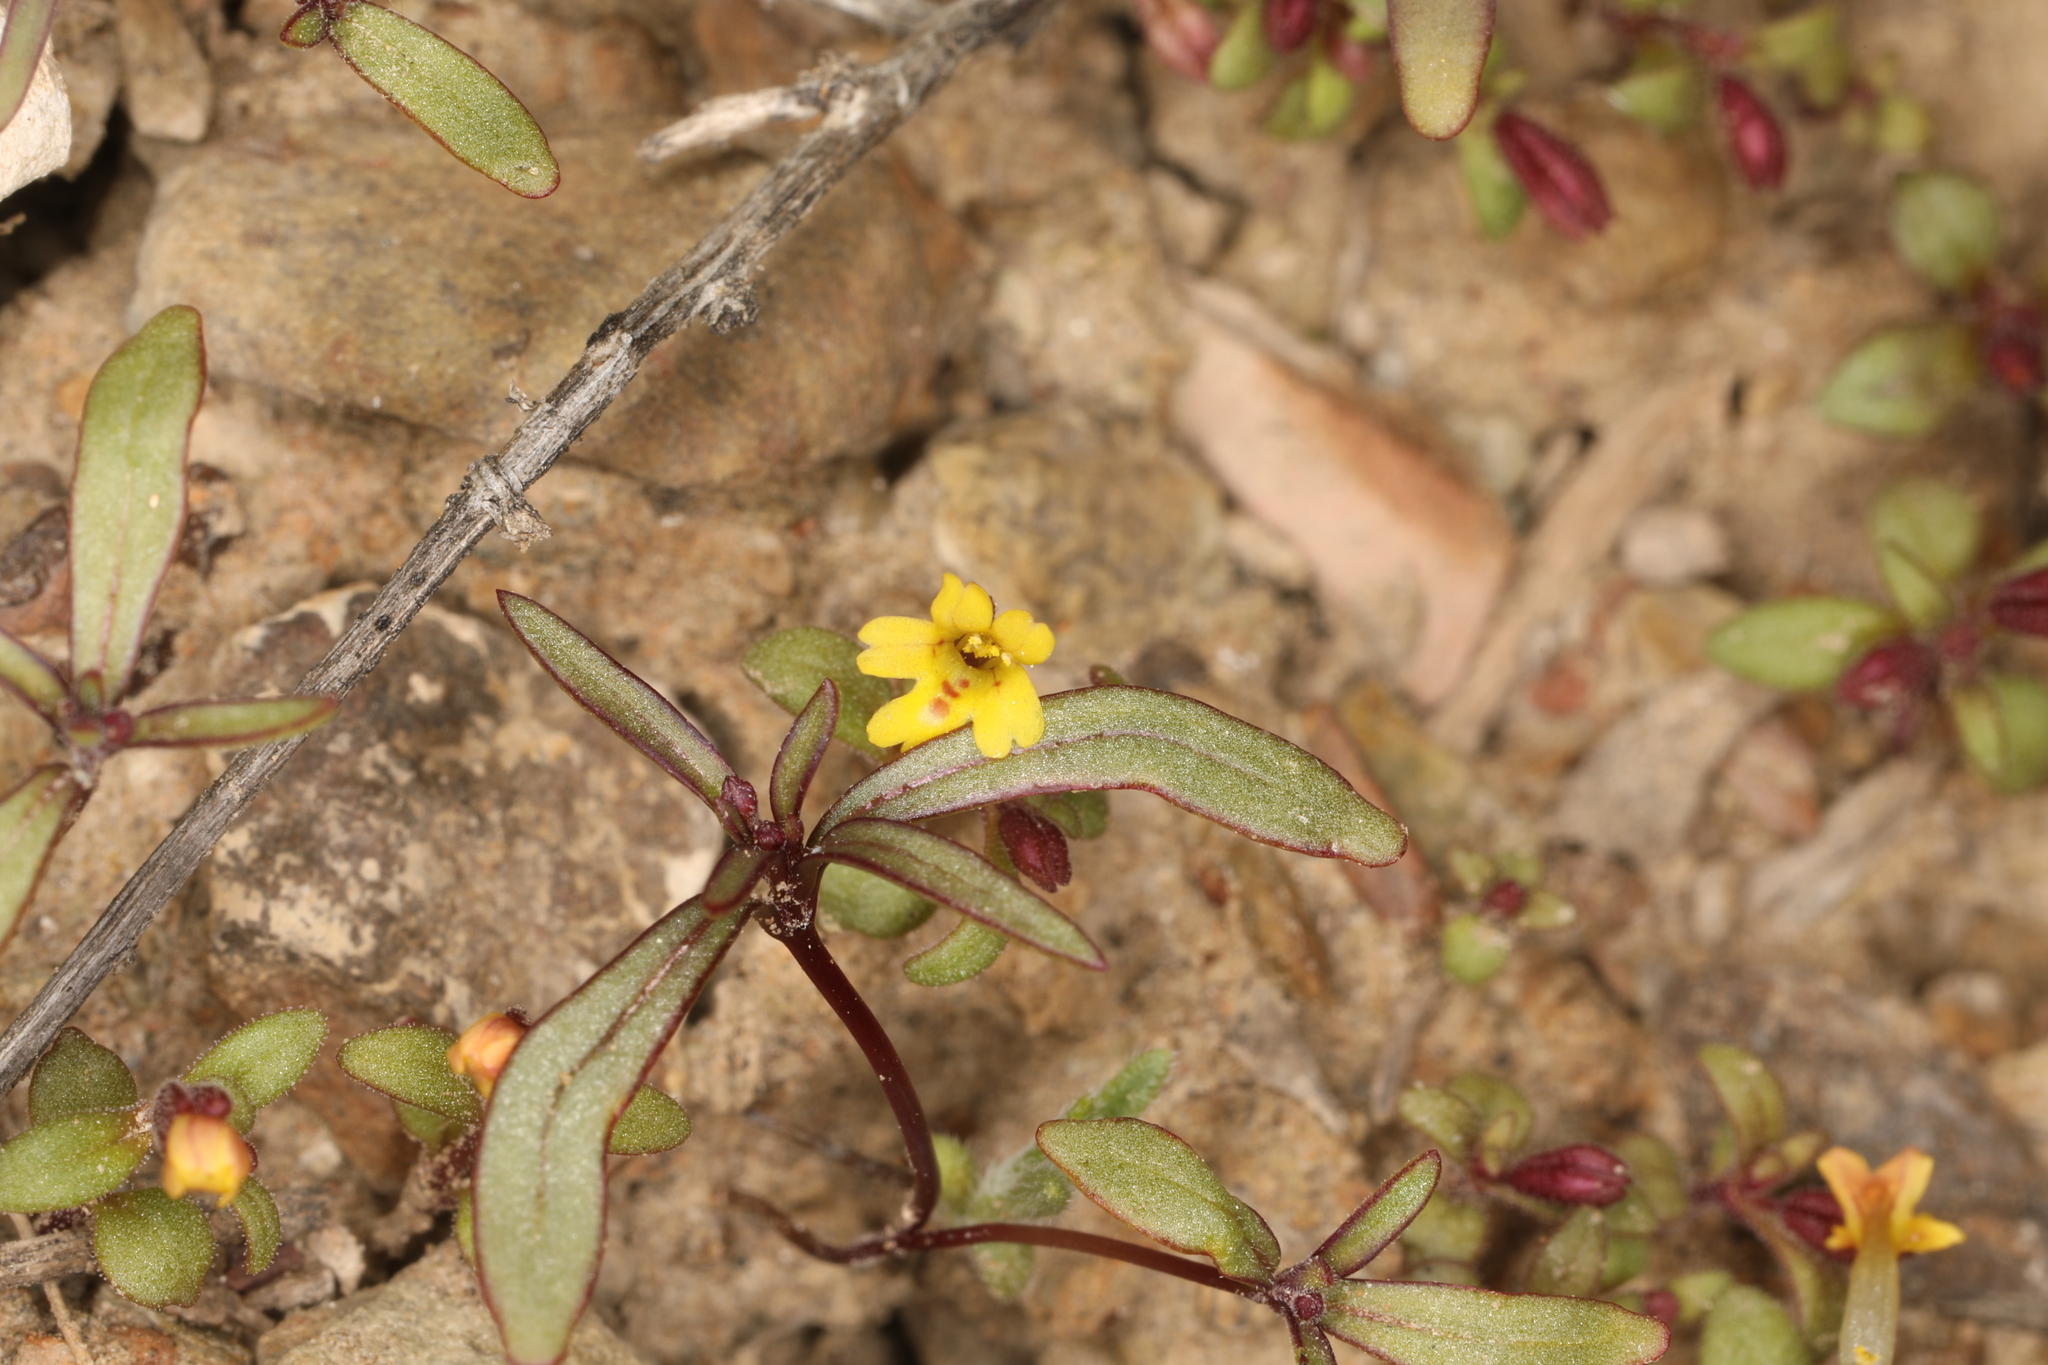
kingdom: Plantae
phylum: Tracheophyta
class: Magnoliopsida
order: Lamiales
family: Phrymaceae
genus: Erythranthe
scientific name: Erythranthe suksdorfii
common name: Suksdorf's monkeyflower
